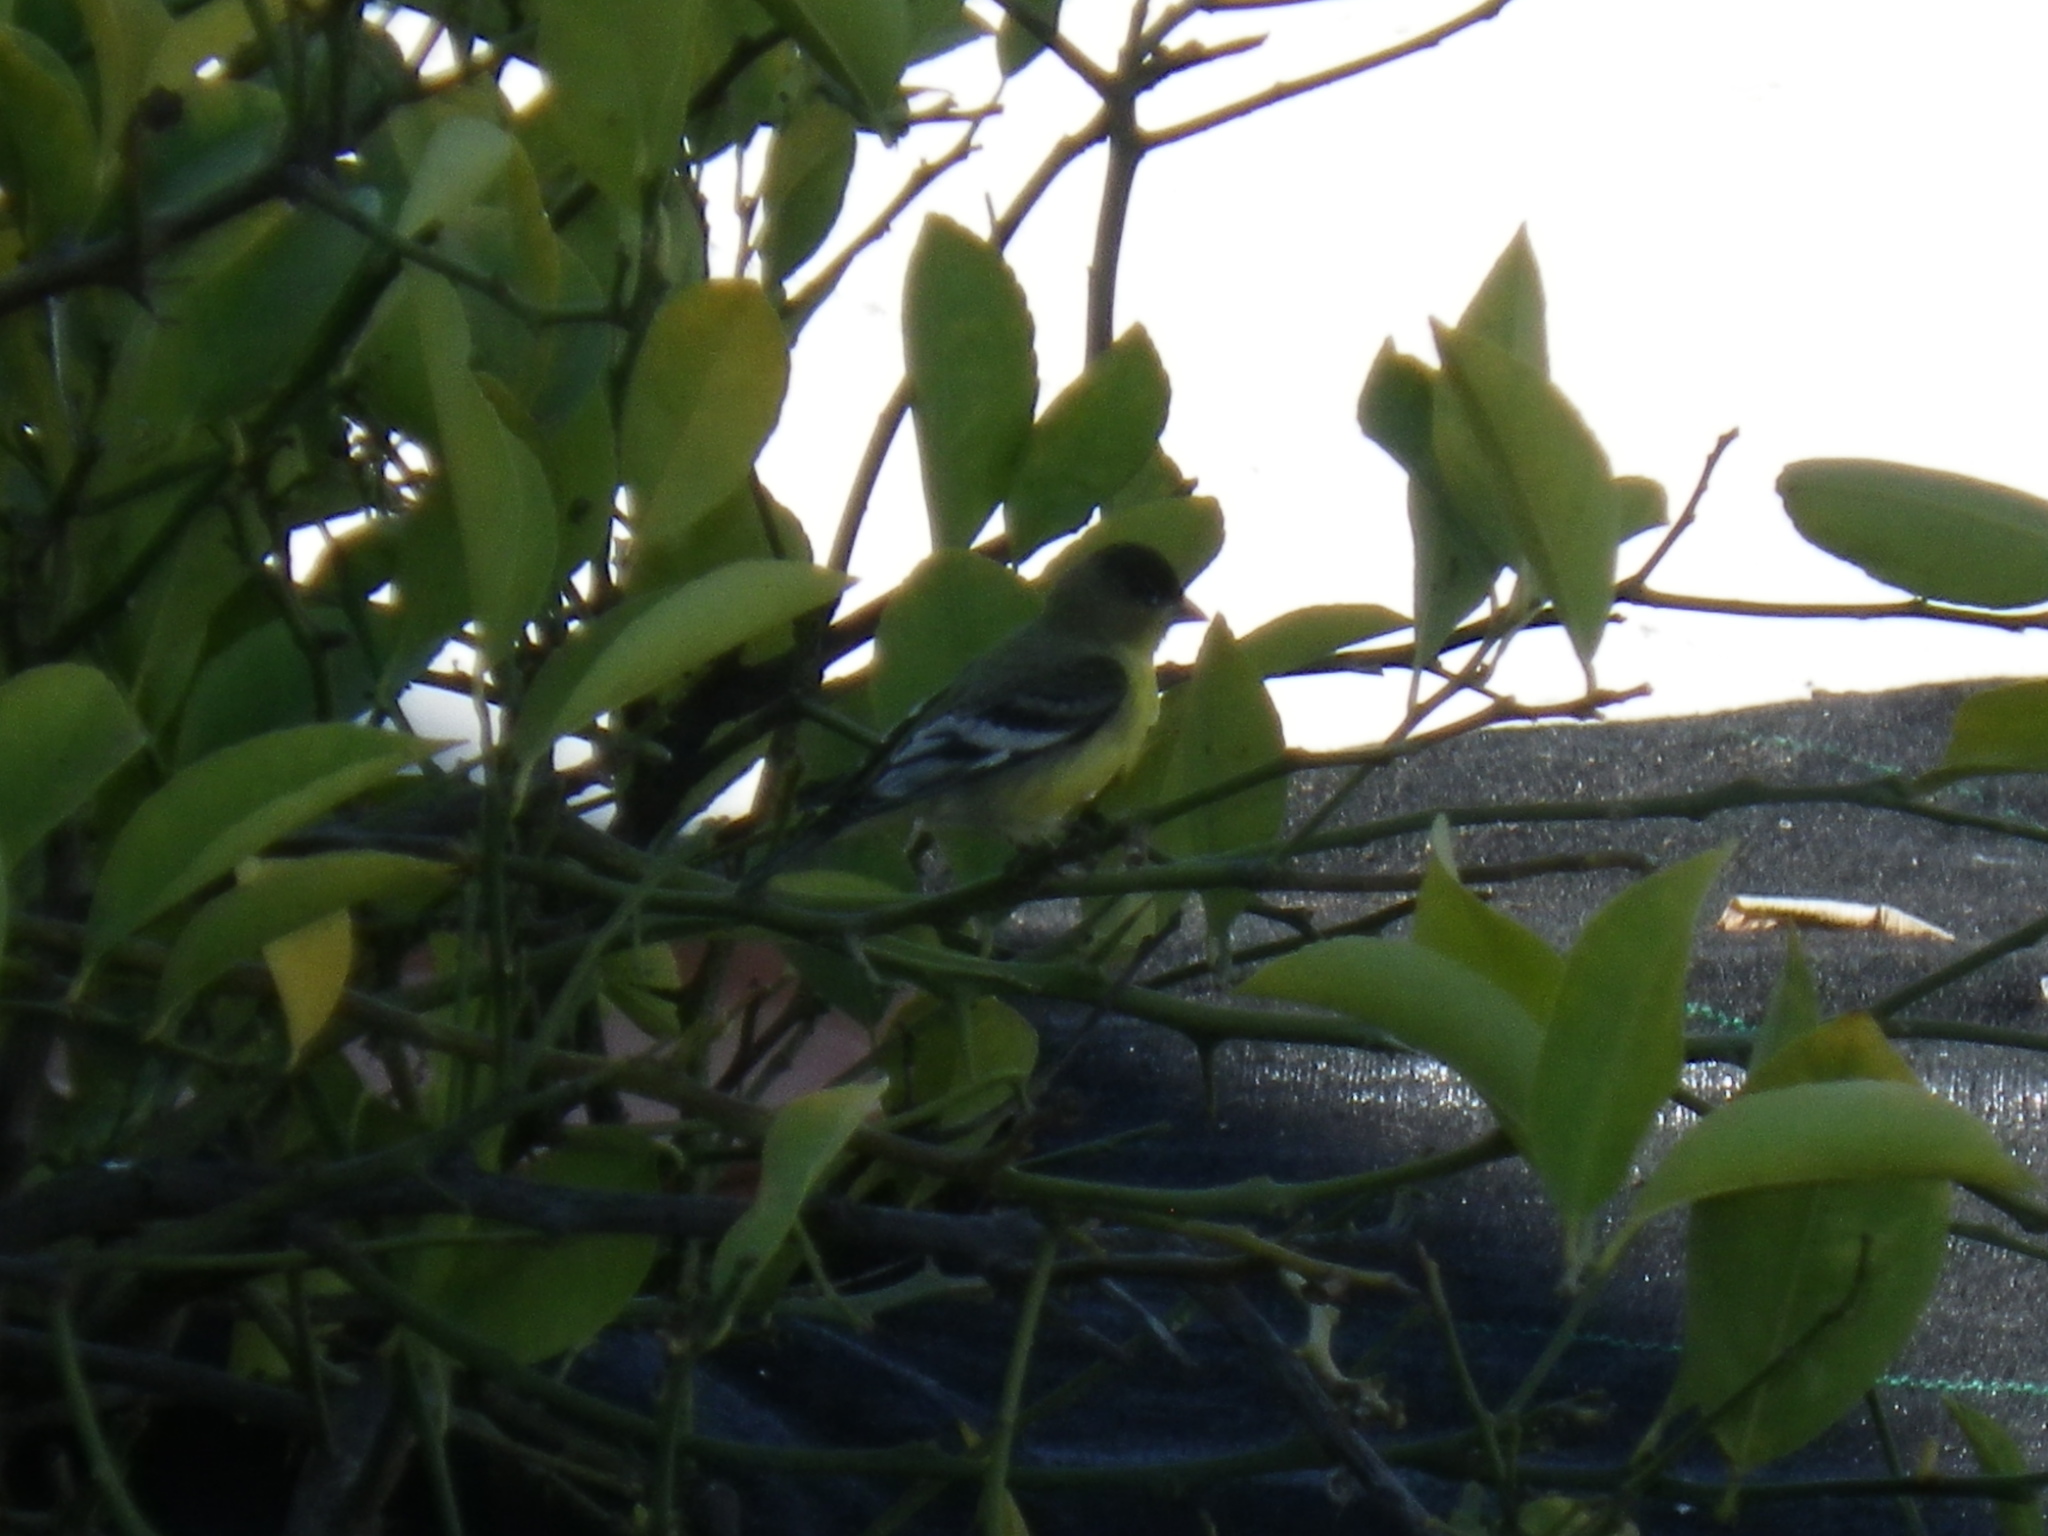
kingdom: Animalia
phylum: Chordata
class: Aves
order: Passeriformes
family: Fringillidae
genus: Spinus
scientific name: Spinus psaltria
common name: Lesser goldfinch
